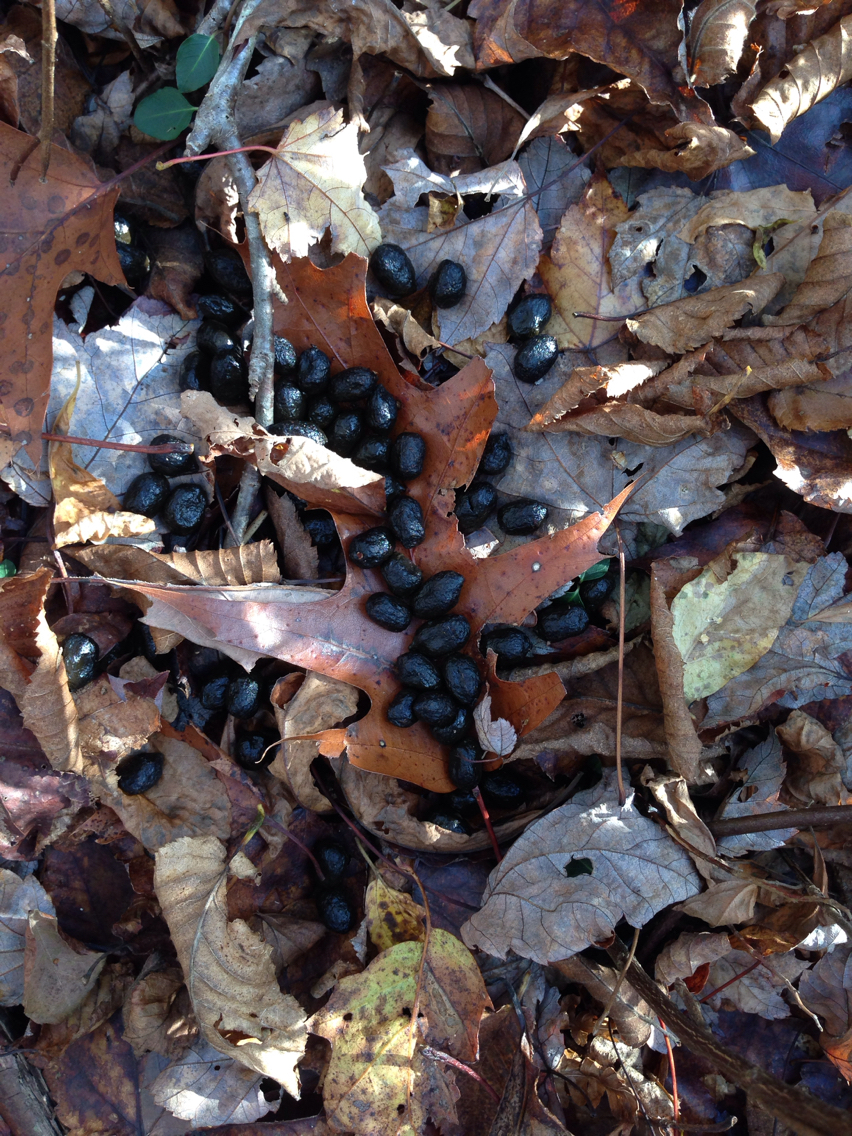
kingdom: Animalia
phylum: Chordata
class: Mammalia
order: Artiodactyla
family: Cervidae
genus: Odocoileus
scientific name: Odocoileus virginianus
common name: White-tailed deer
